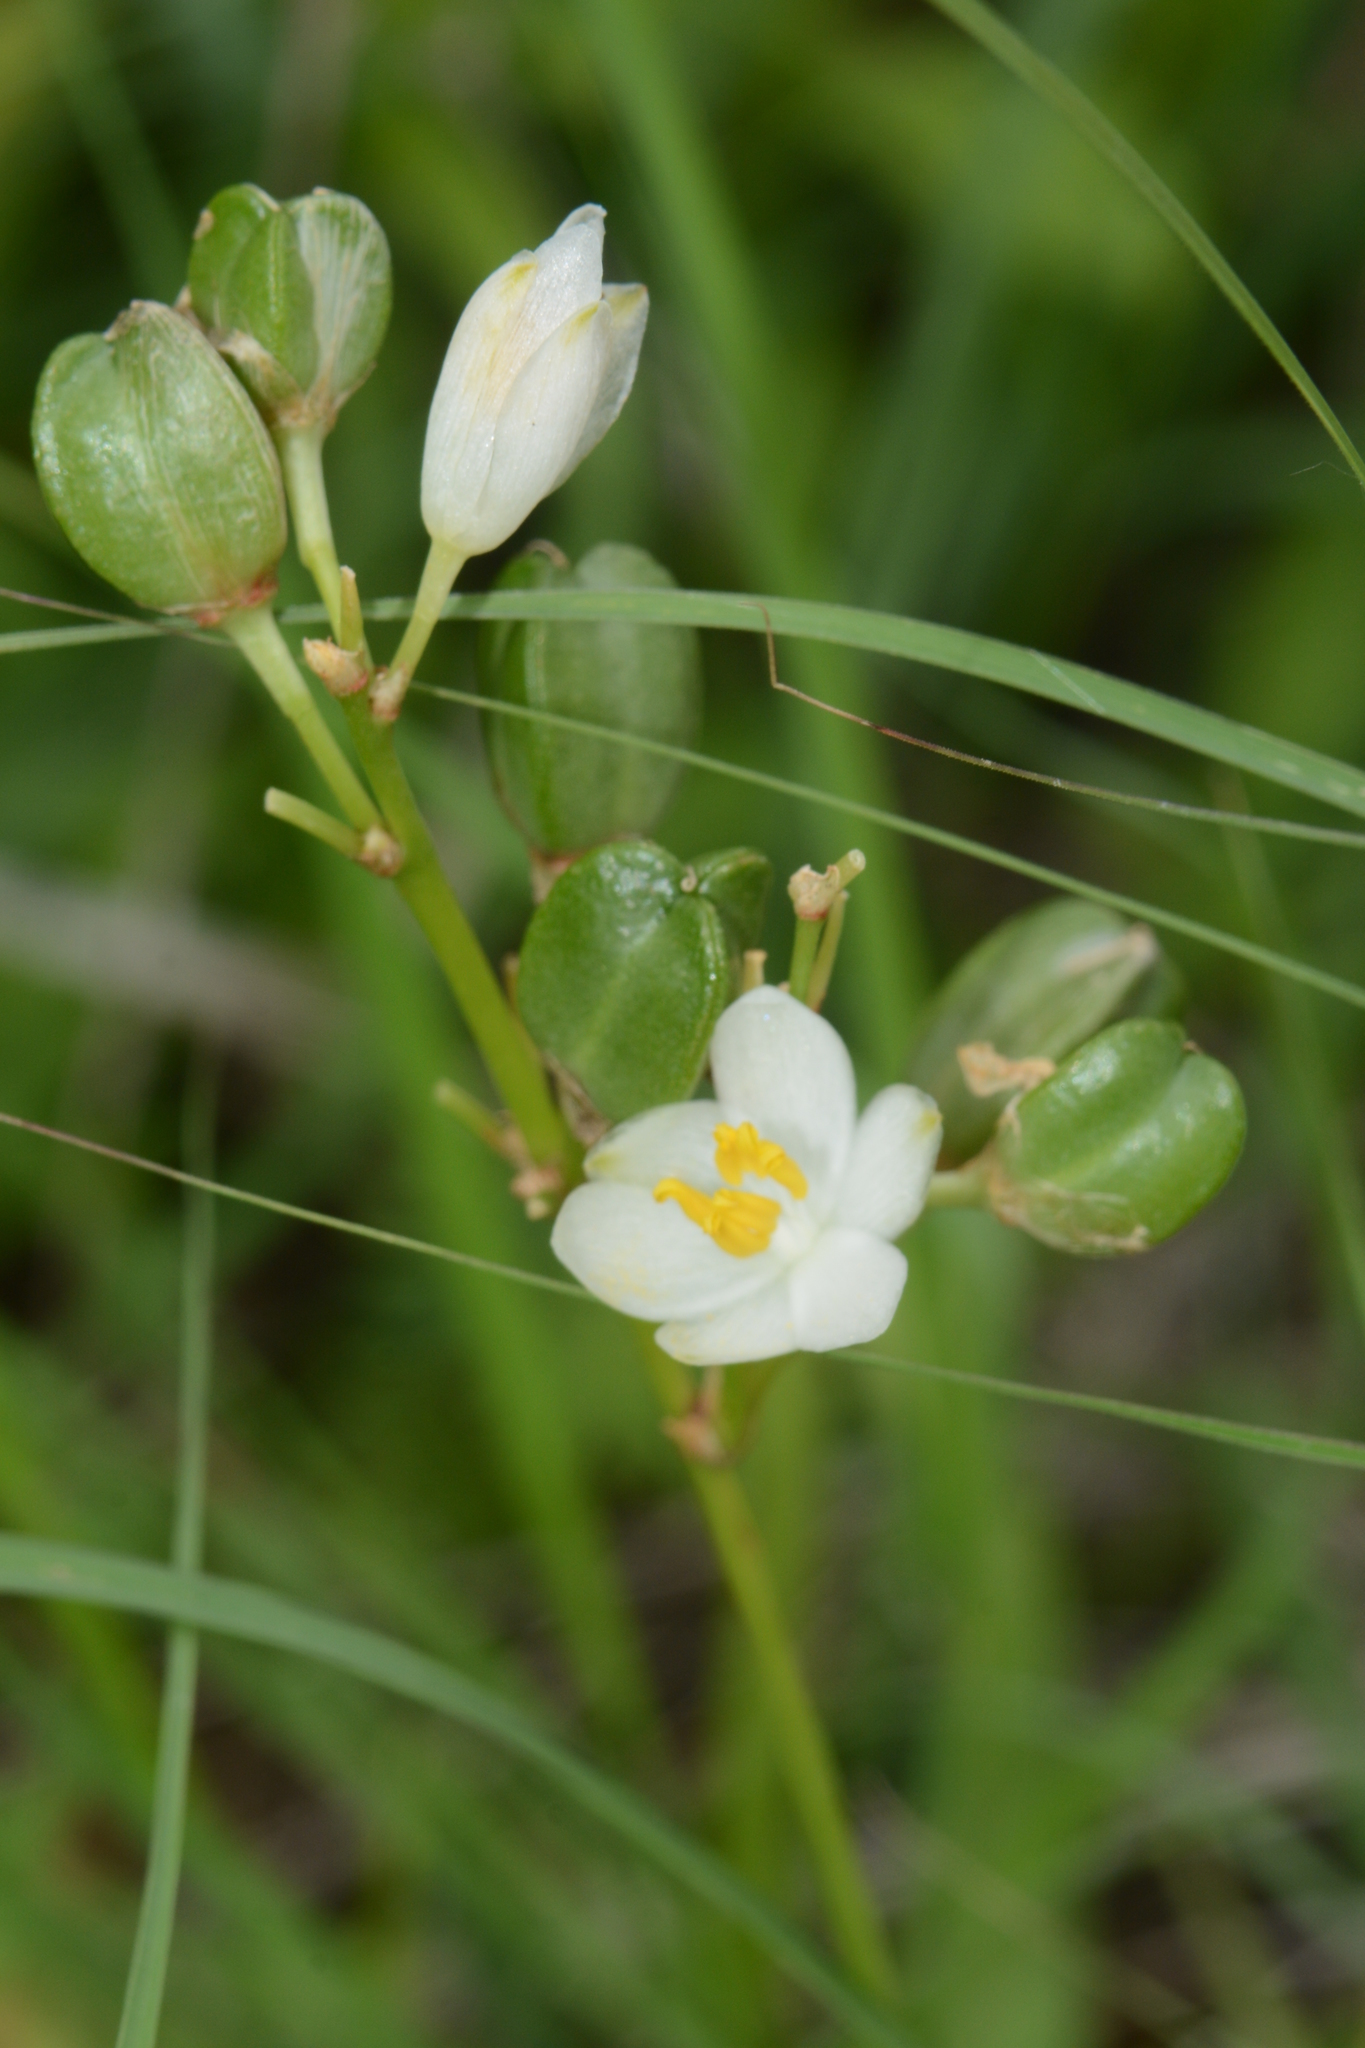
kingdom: Plantae
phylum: Tracheophyta
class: Liliopsida
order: Asparagales
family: Asparagaceae
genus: Chlorophytum
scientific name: Chlorophytum tuberosum
